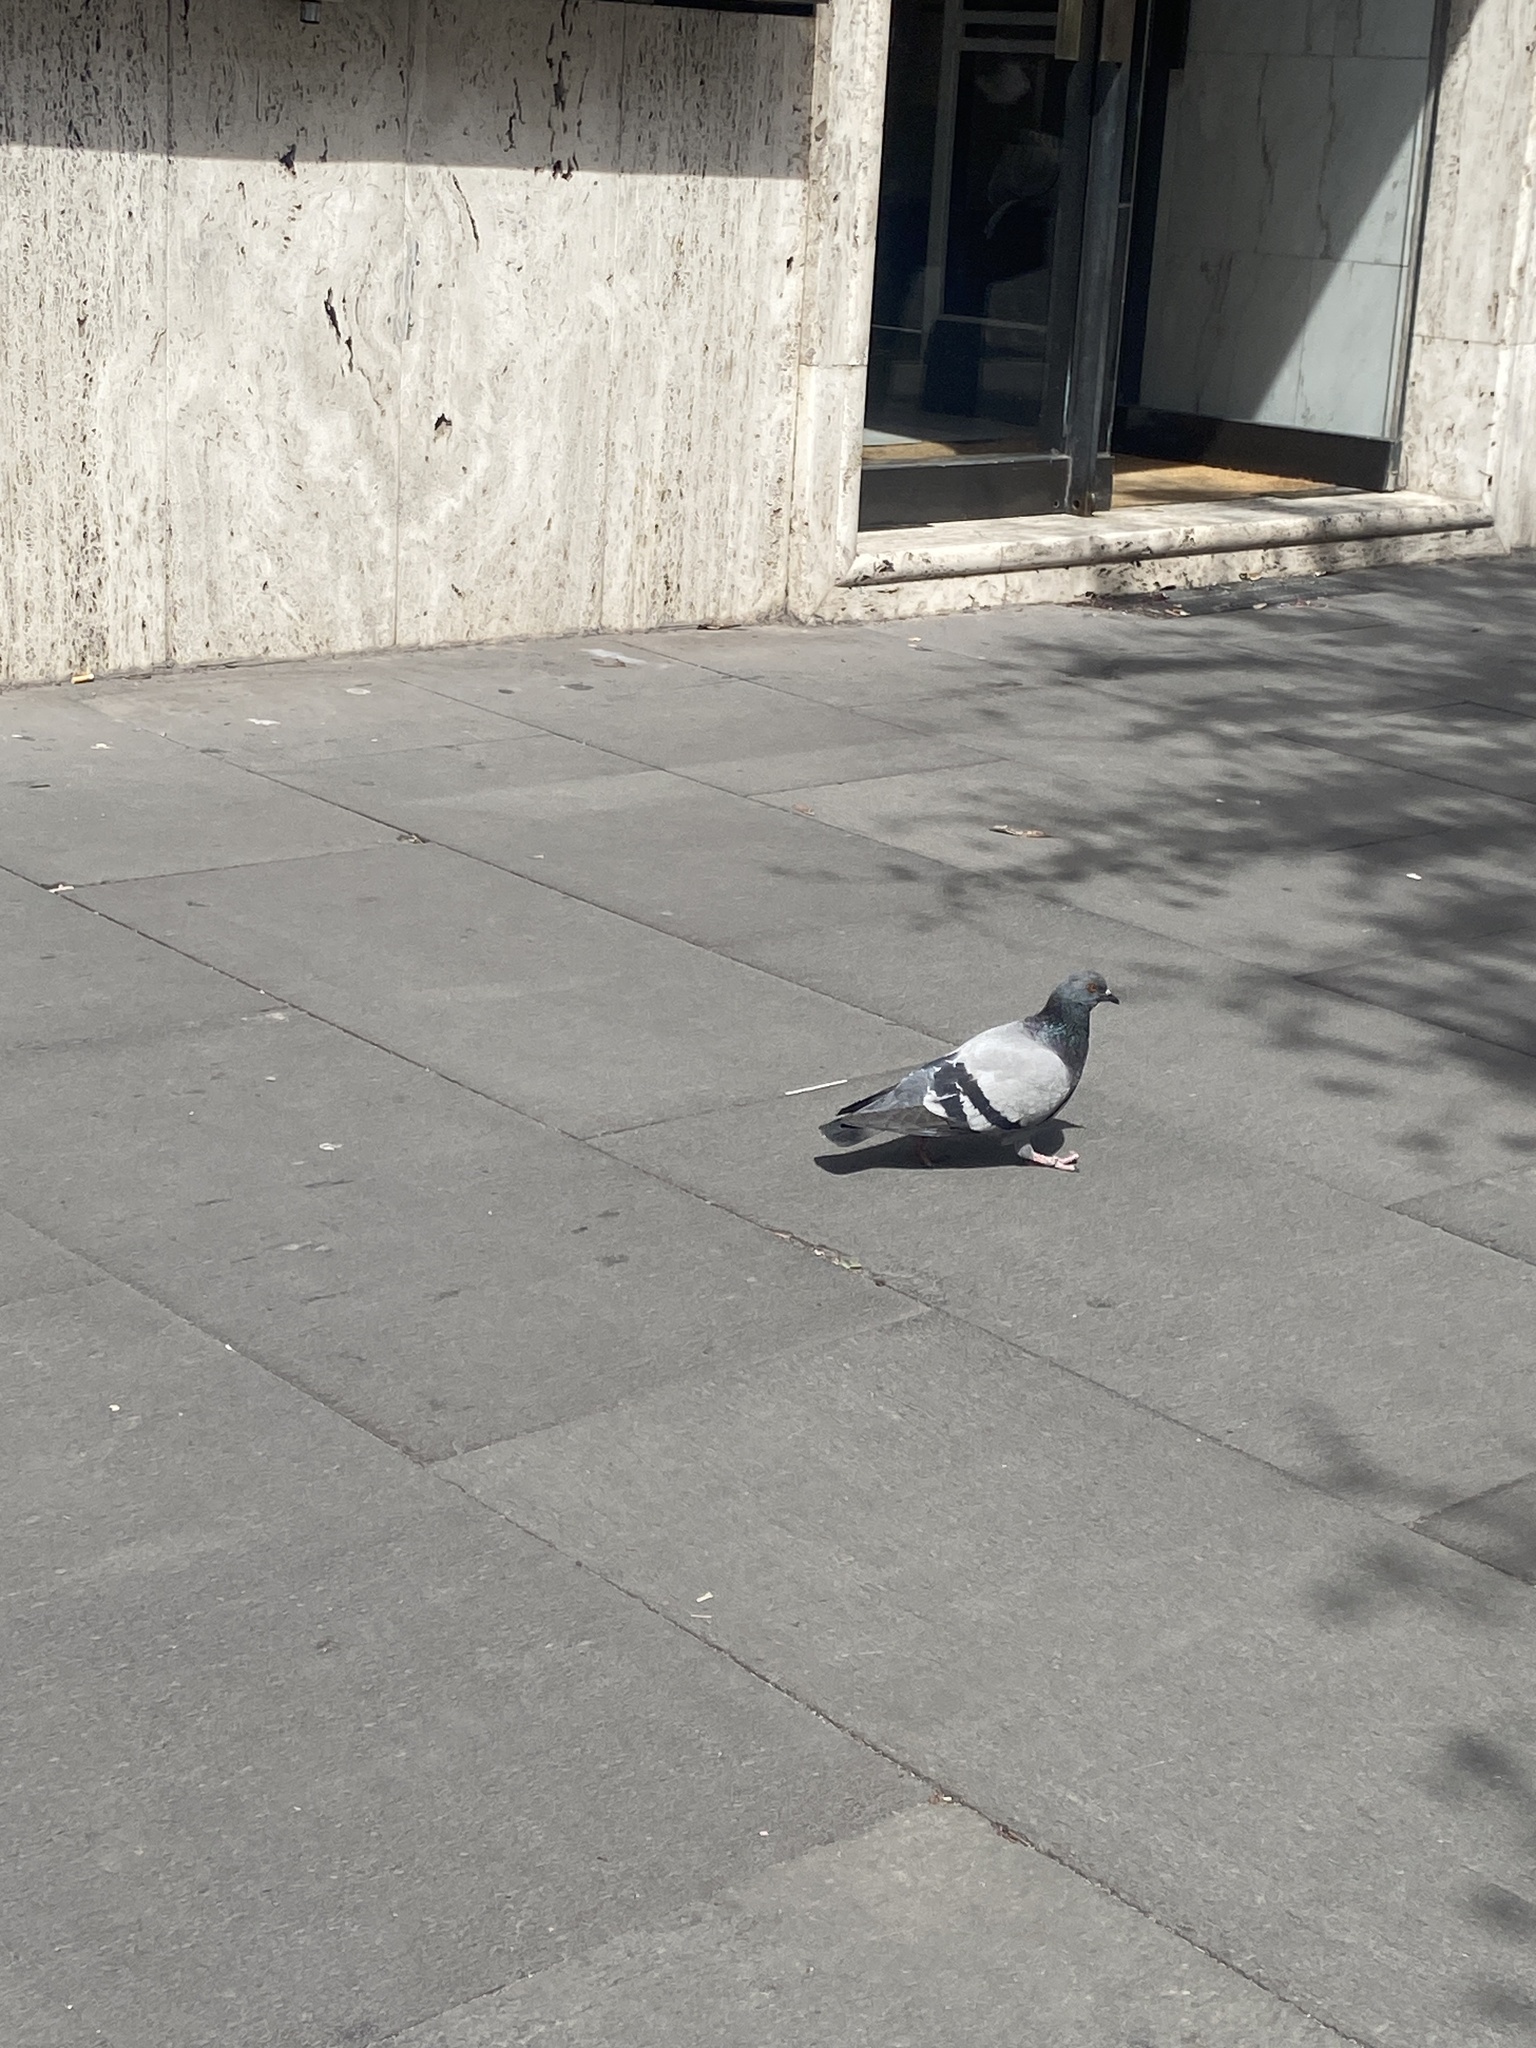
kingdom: Animalia
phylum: Chordata
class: Aves
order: Columbiformes
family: Columbidae
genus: Columba
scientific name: Columba livia
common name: Rock pigeon
